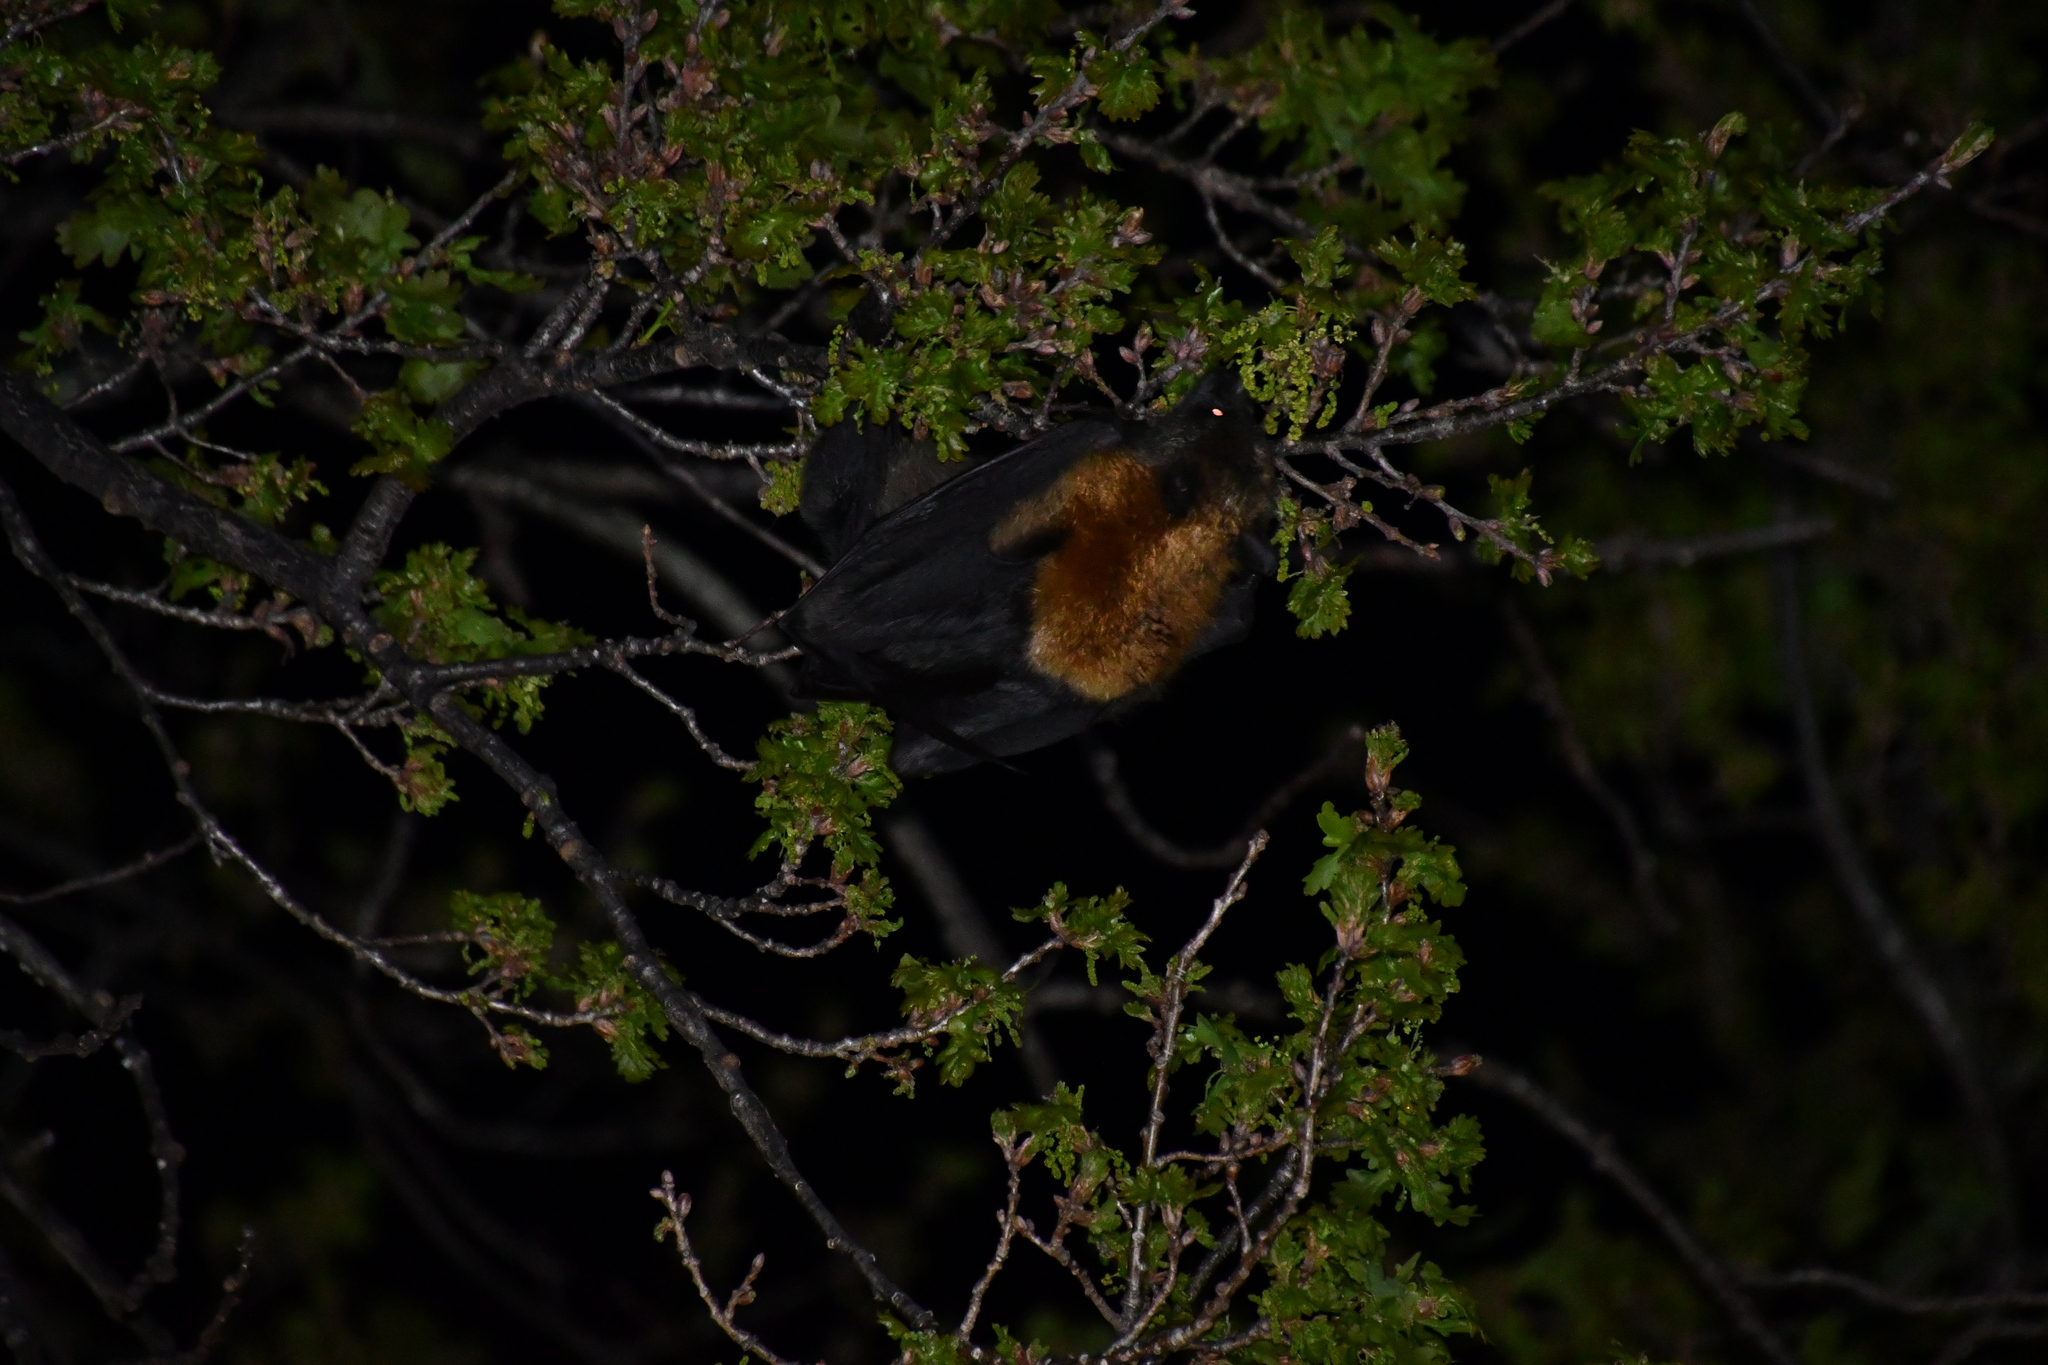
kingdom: Animalia
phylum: Chordata
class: Mammalia
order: Chiroptera
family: Pteropodidae
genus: Pteropus
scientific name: Pteropus poliocephalus
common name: Gray-headed flying fox
